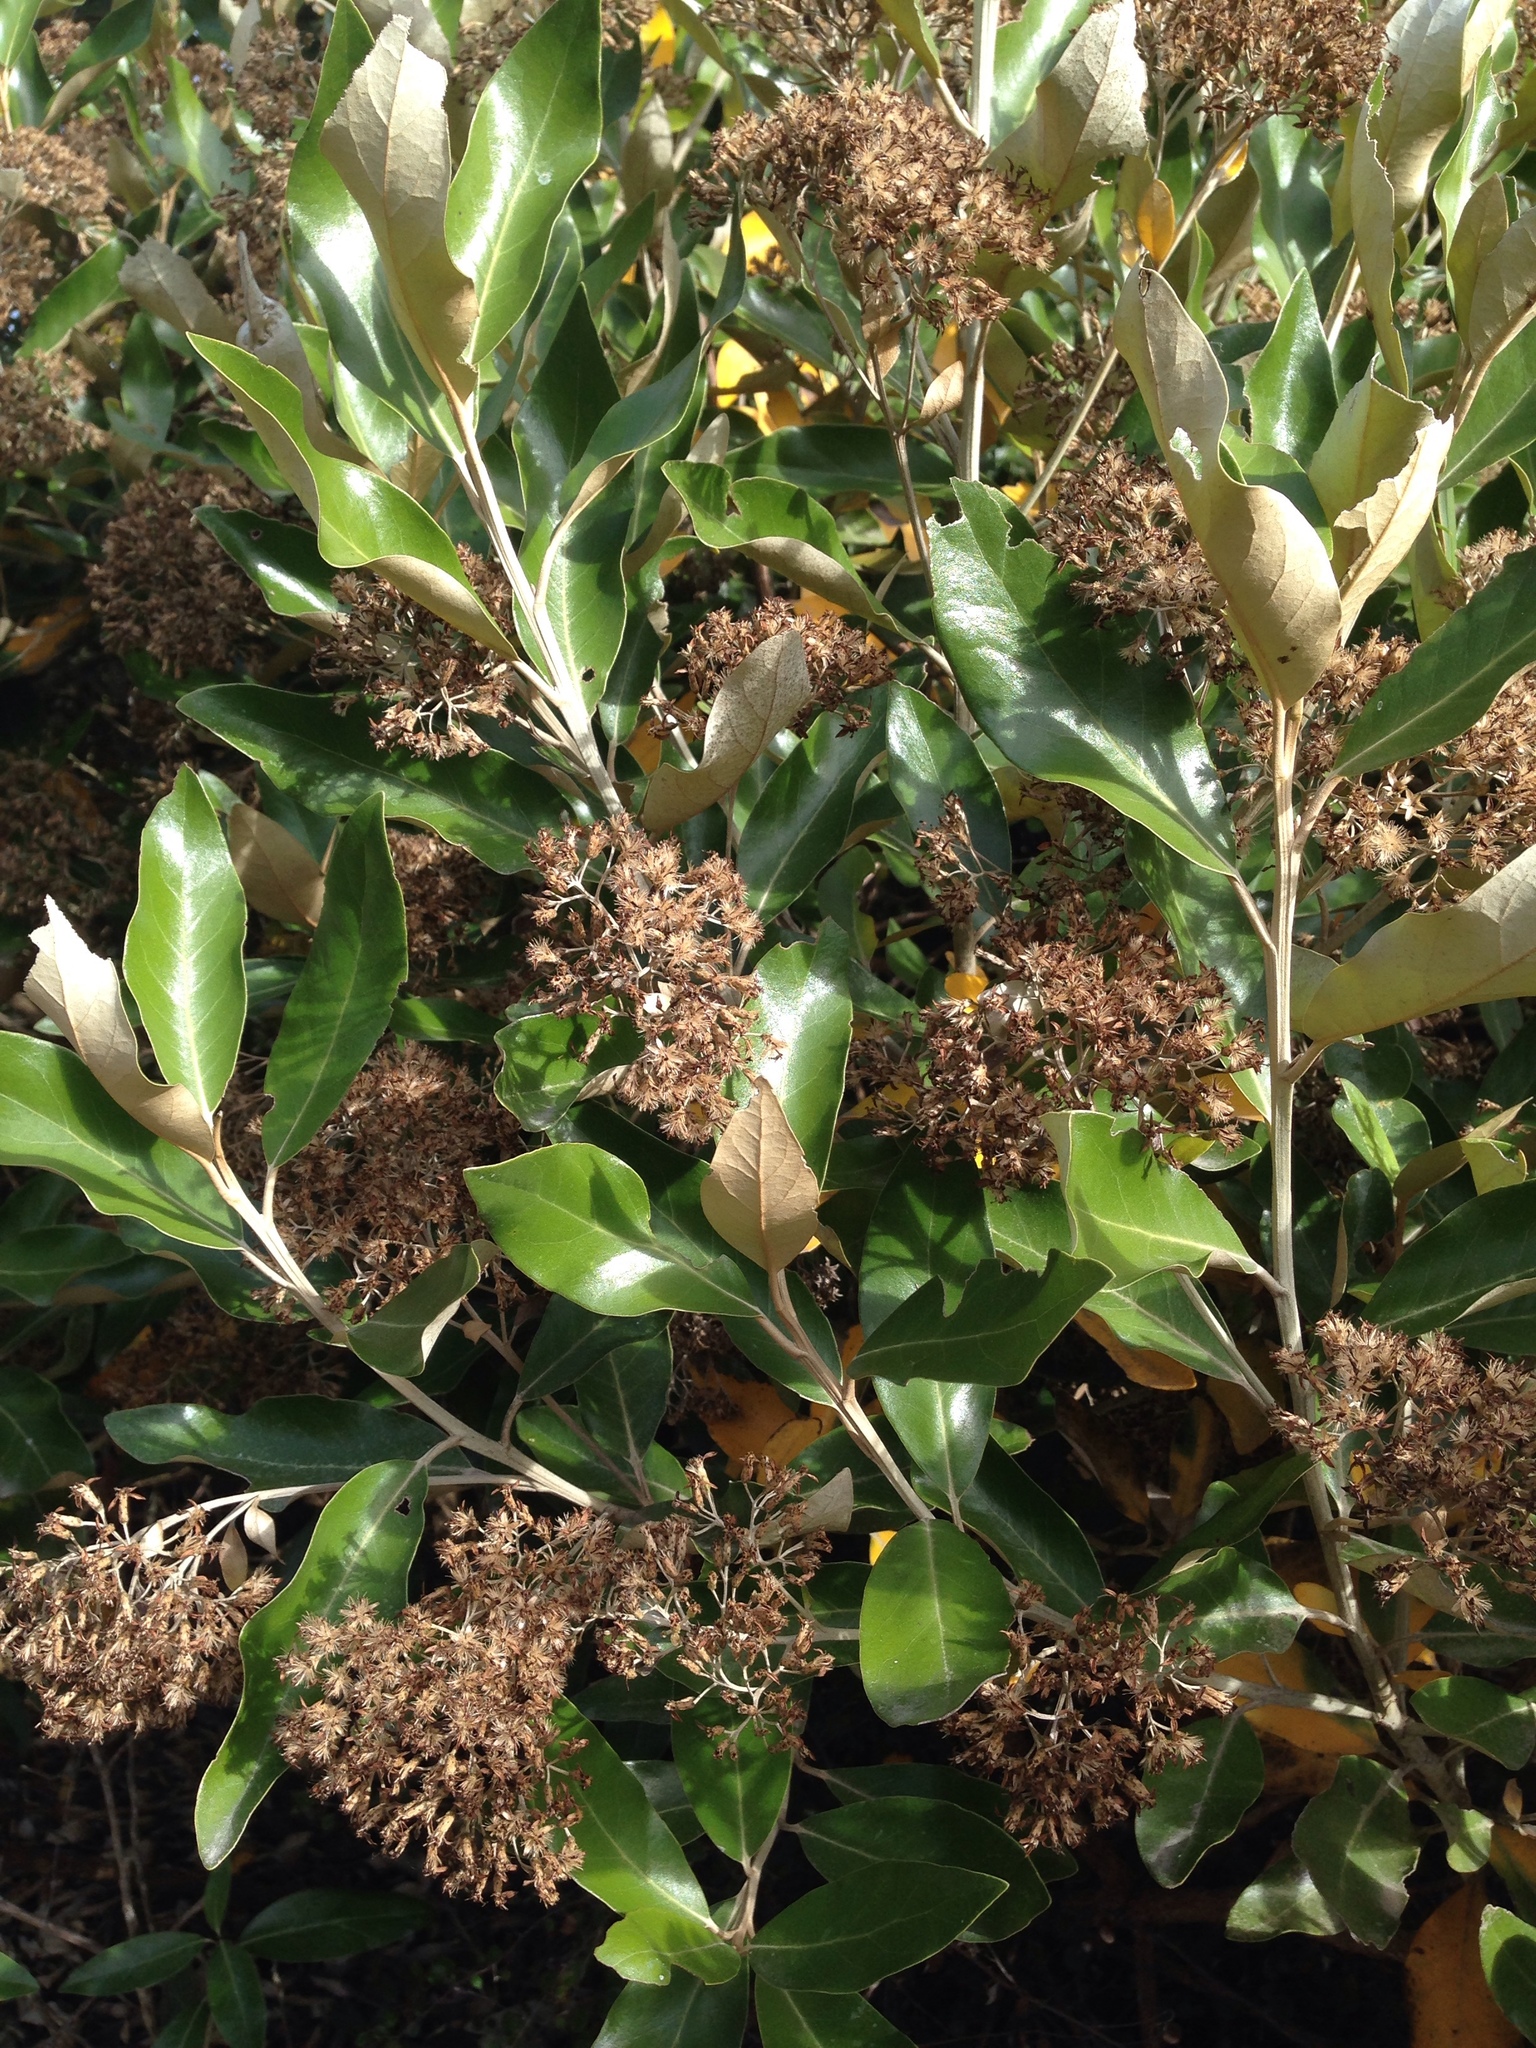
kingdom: Plantae
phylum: Tracheophyta
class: Magnoliopsida
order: Asterales
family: Asteraceae
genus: Olearia
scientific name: Olearia avicenniifolia
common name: Mangrove-leaf daisybush
